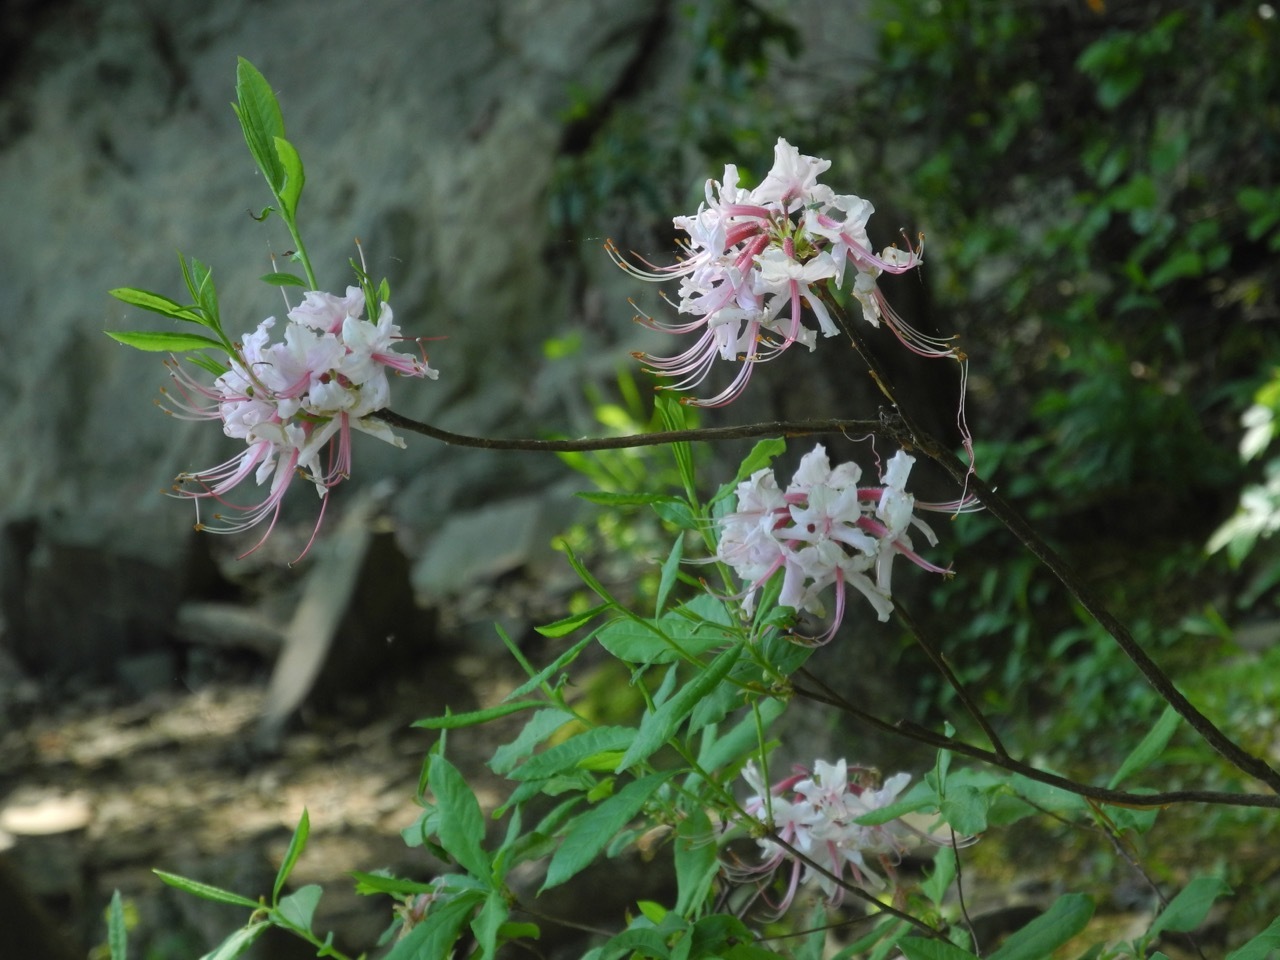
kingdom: Plantae
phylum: Tracheophyta
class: Magnoliopsida
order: Ericales
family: Ericaceae
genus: Rhododendron
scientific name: Rhododendron periclymenoides
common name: Election-pink
